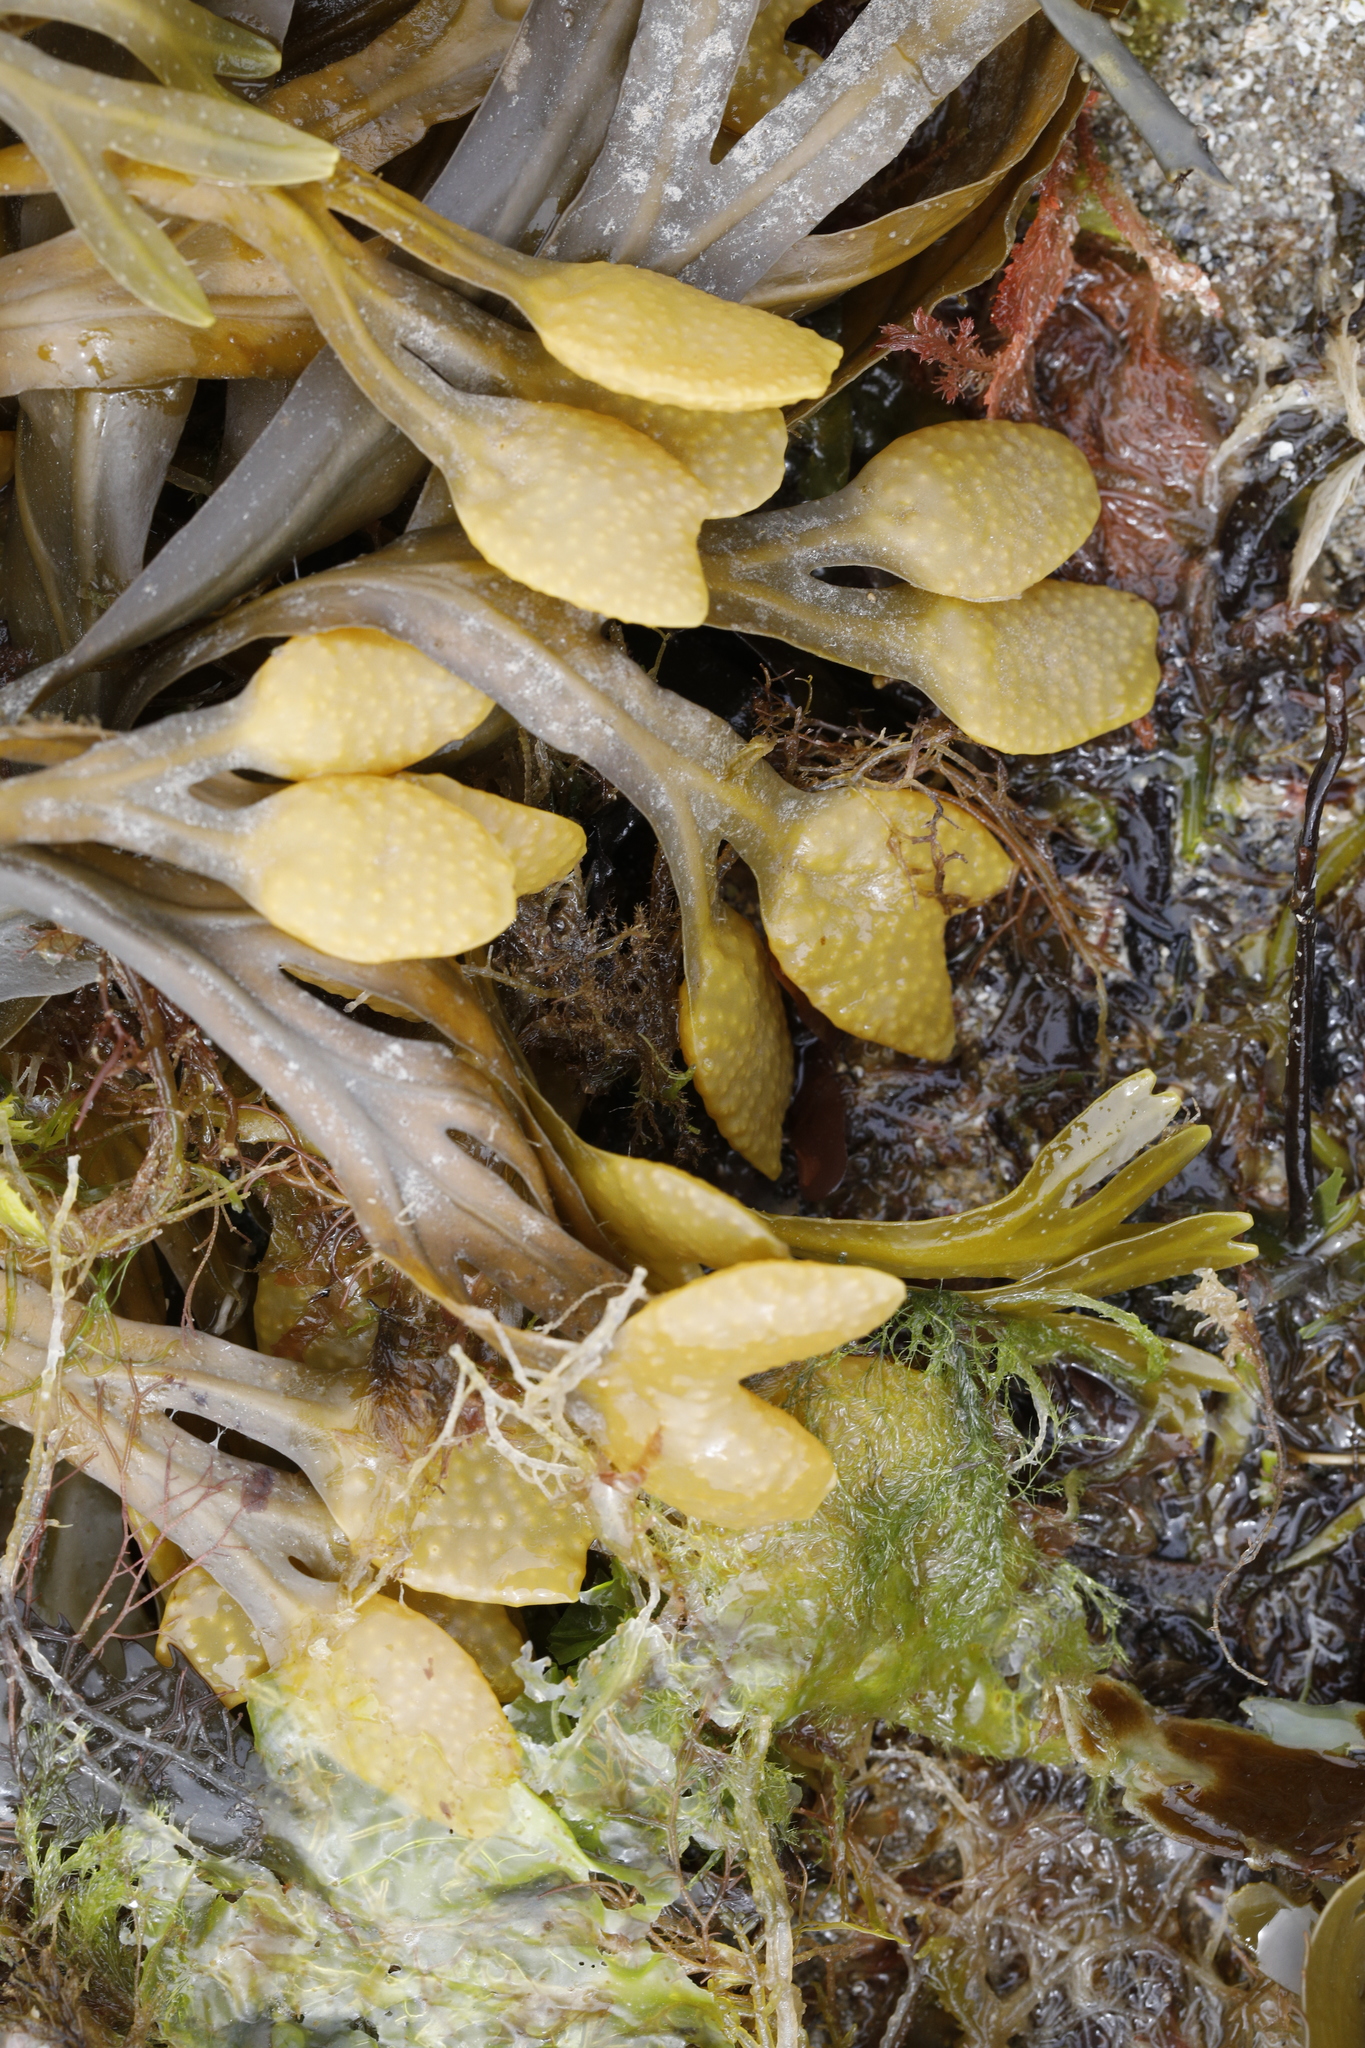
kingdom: Chromista
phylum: Ochrophyta
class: Phaeophyceae
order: Fucales
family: Fucaceae
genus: Fucus
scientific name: Fucus vesiculosus
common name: Bladder wrack
